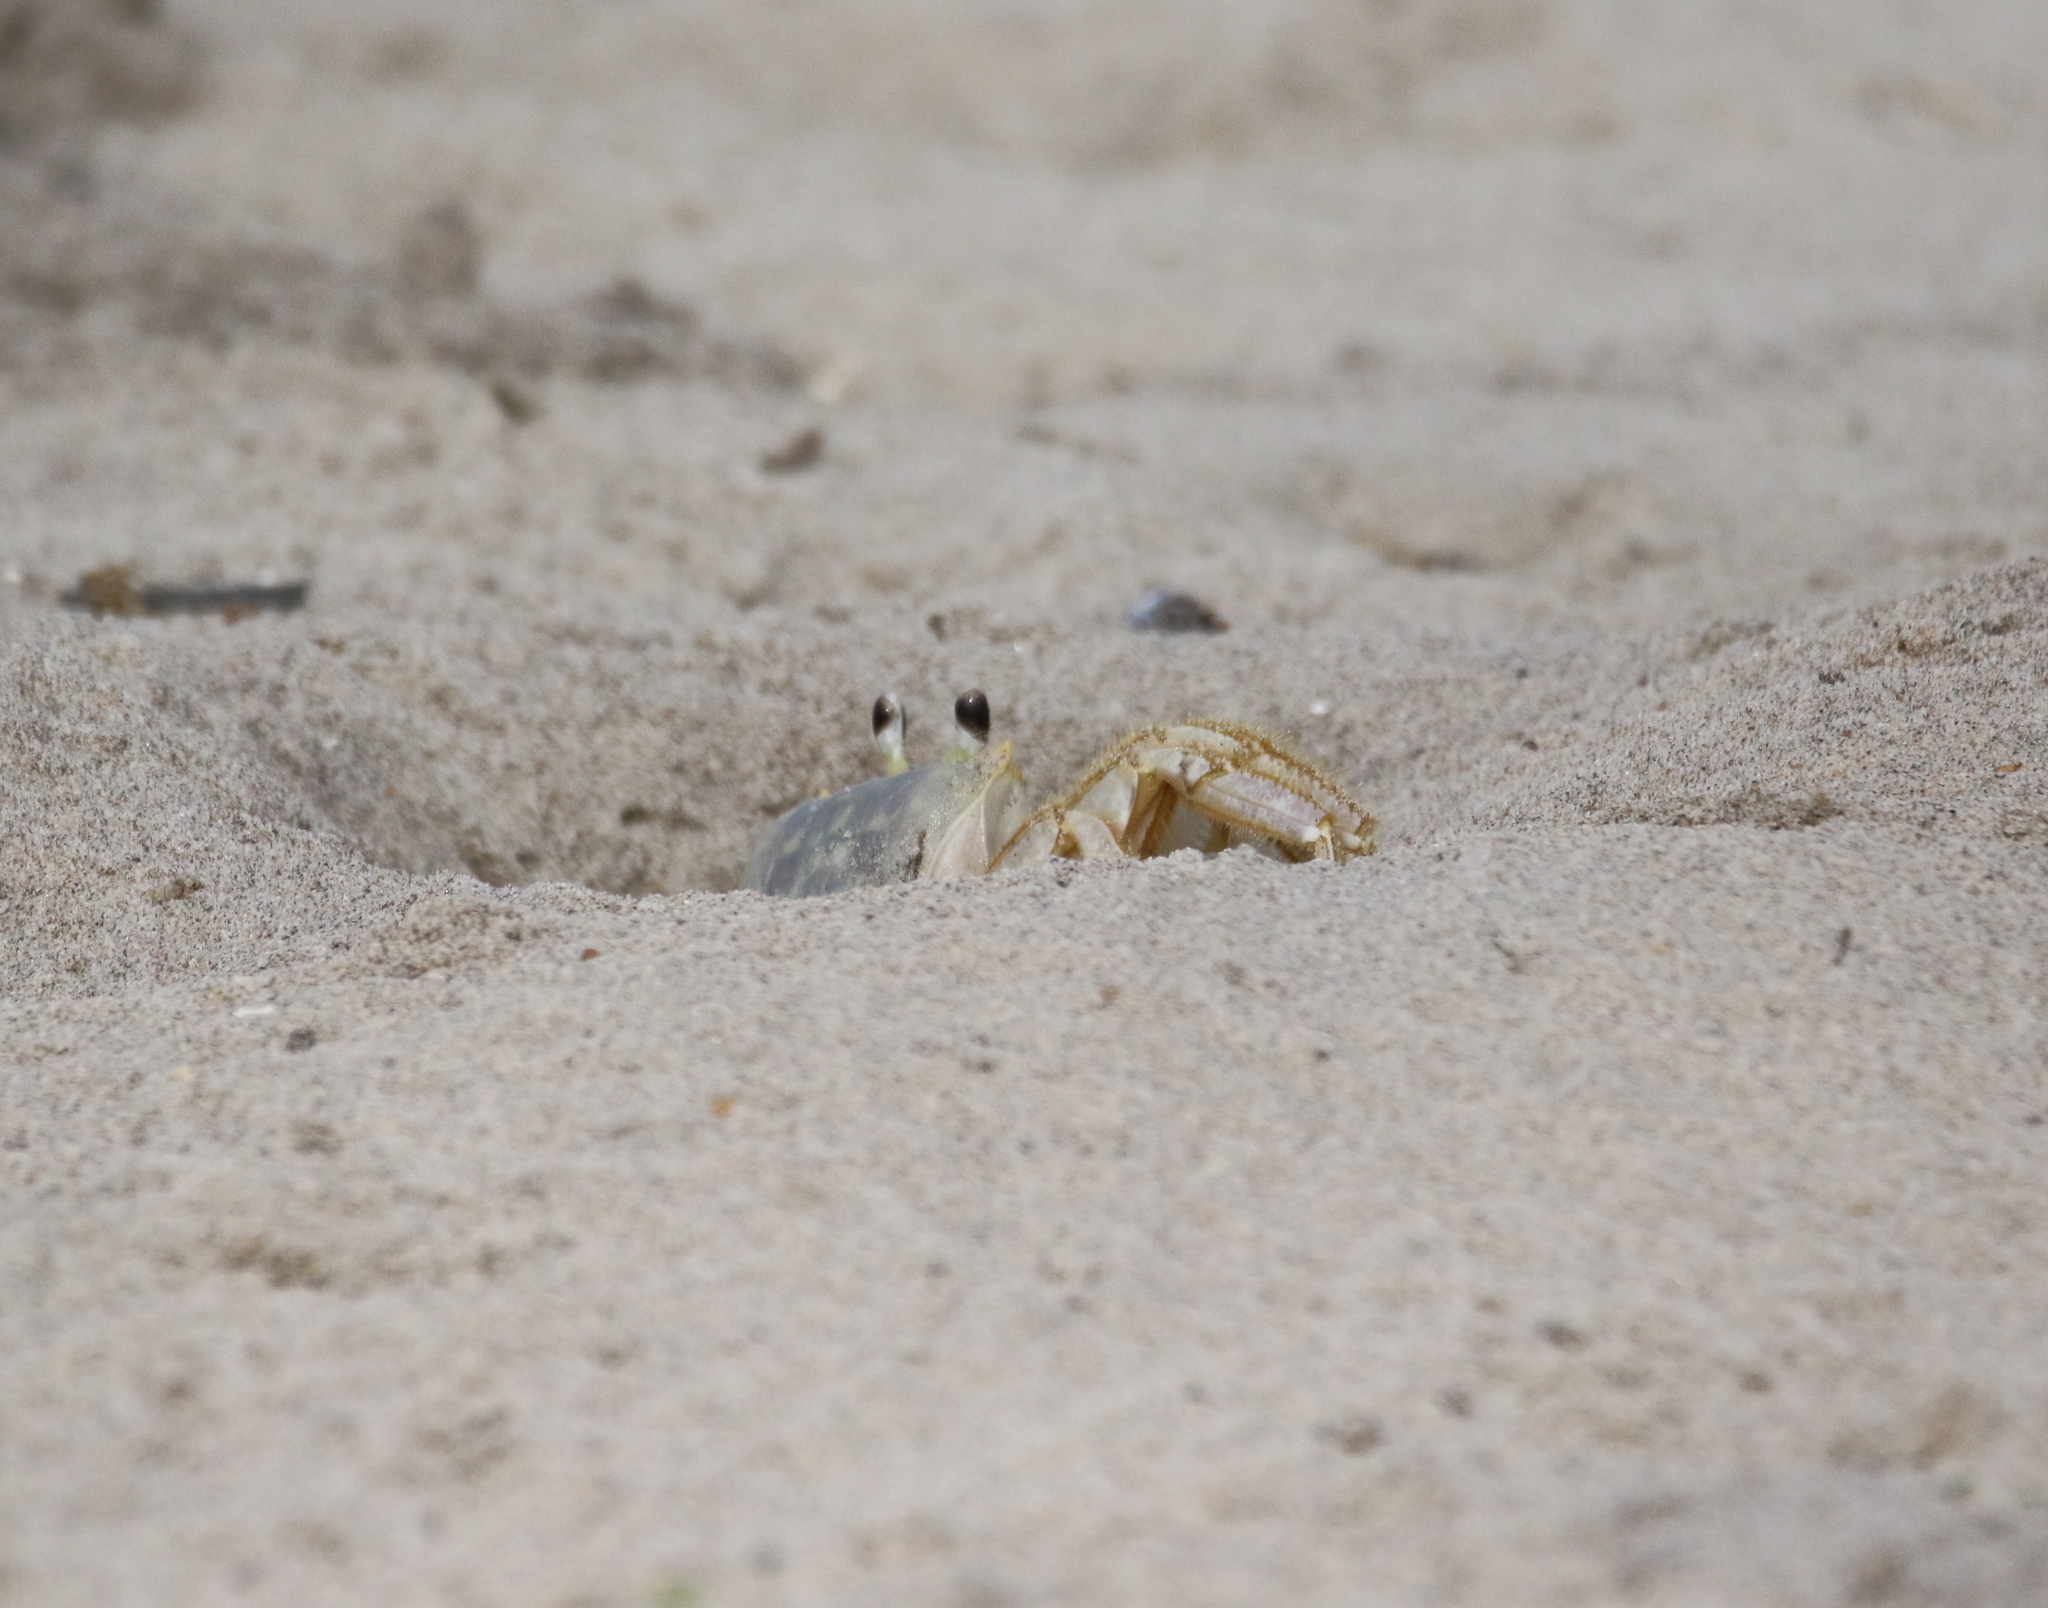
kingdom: Animalia
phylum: Arthropoda
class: Malacostraca
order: Decapoda
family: Ocypodidae
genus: Ocypode
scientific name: Ocypode quadrata
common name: Ghost crab
